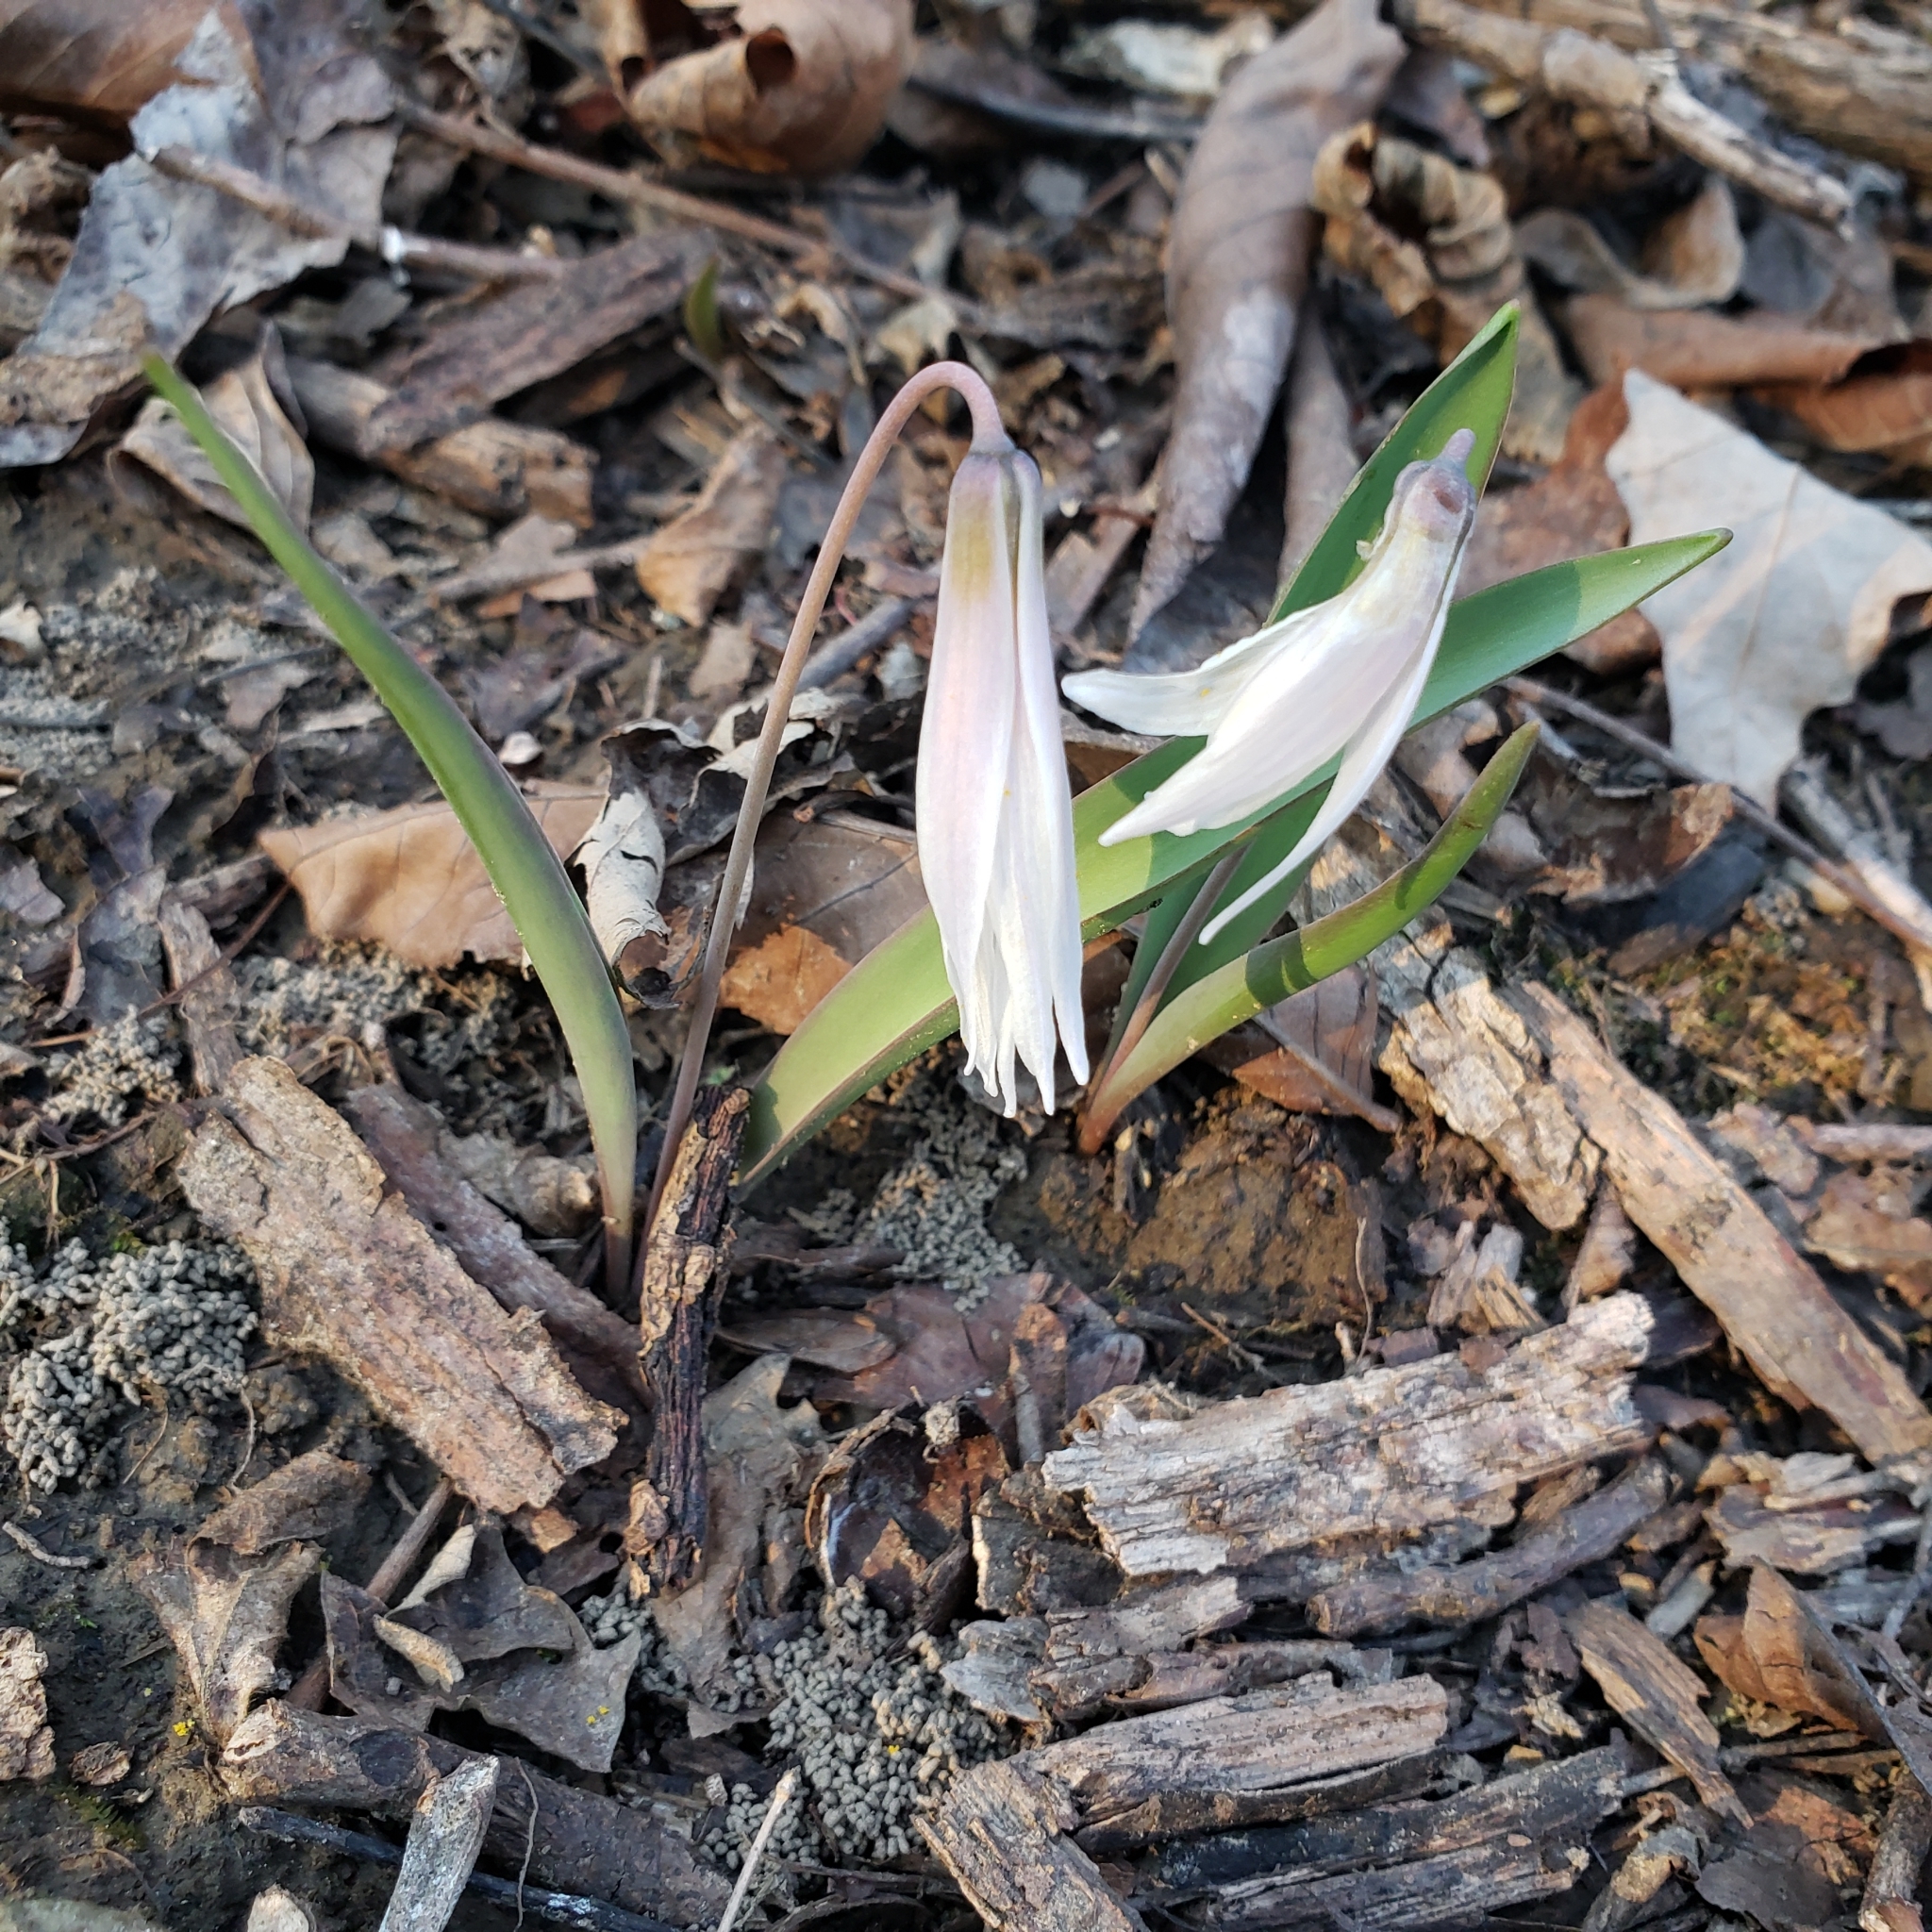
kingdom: Plantae
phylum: Tracheophyta
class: Liliopsida
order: Liliales
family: Liliaceae
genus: Erythronium
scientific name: Erythronium mesochoreum
